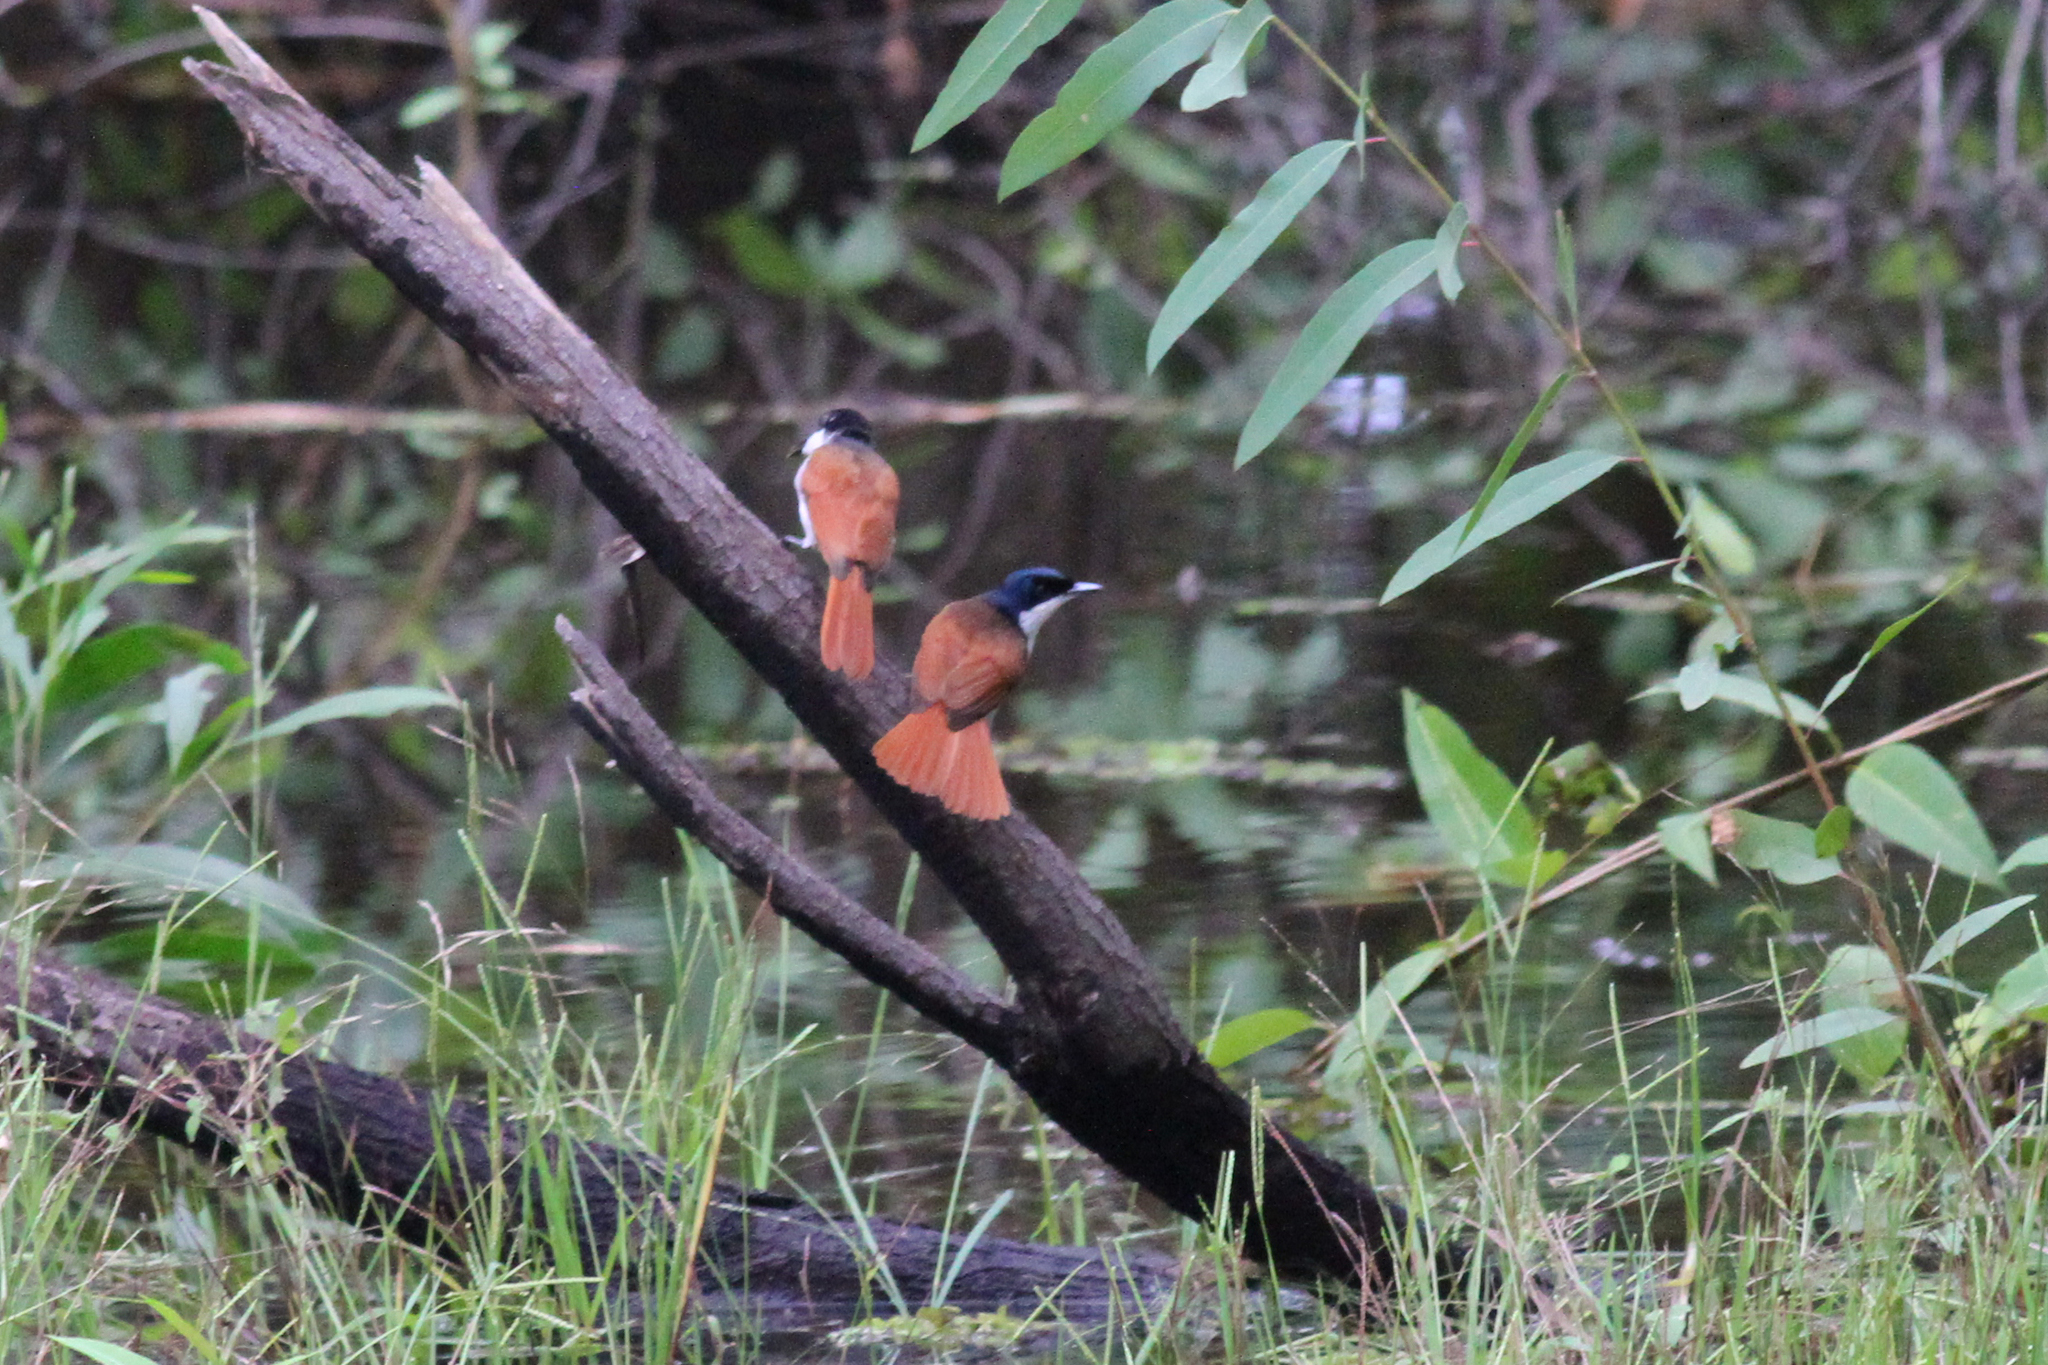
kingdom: Animalia
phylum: Chordata
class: Aves
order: Passeriformes
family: Monarchidae
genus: Myiagra
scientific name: Myiagra alecto
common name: Shining flycatcher
